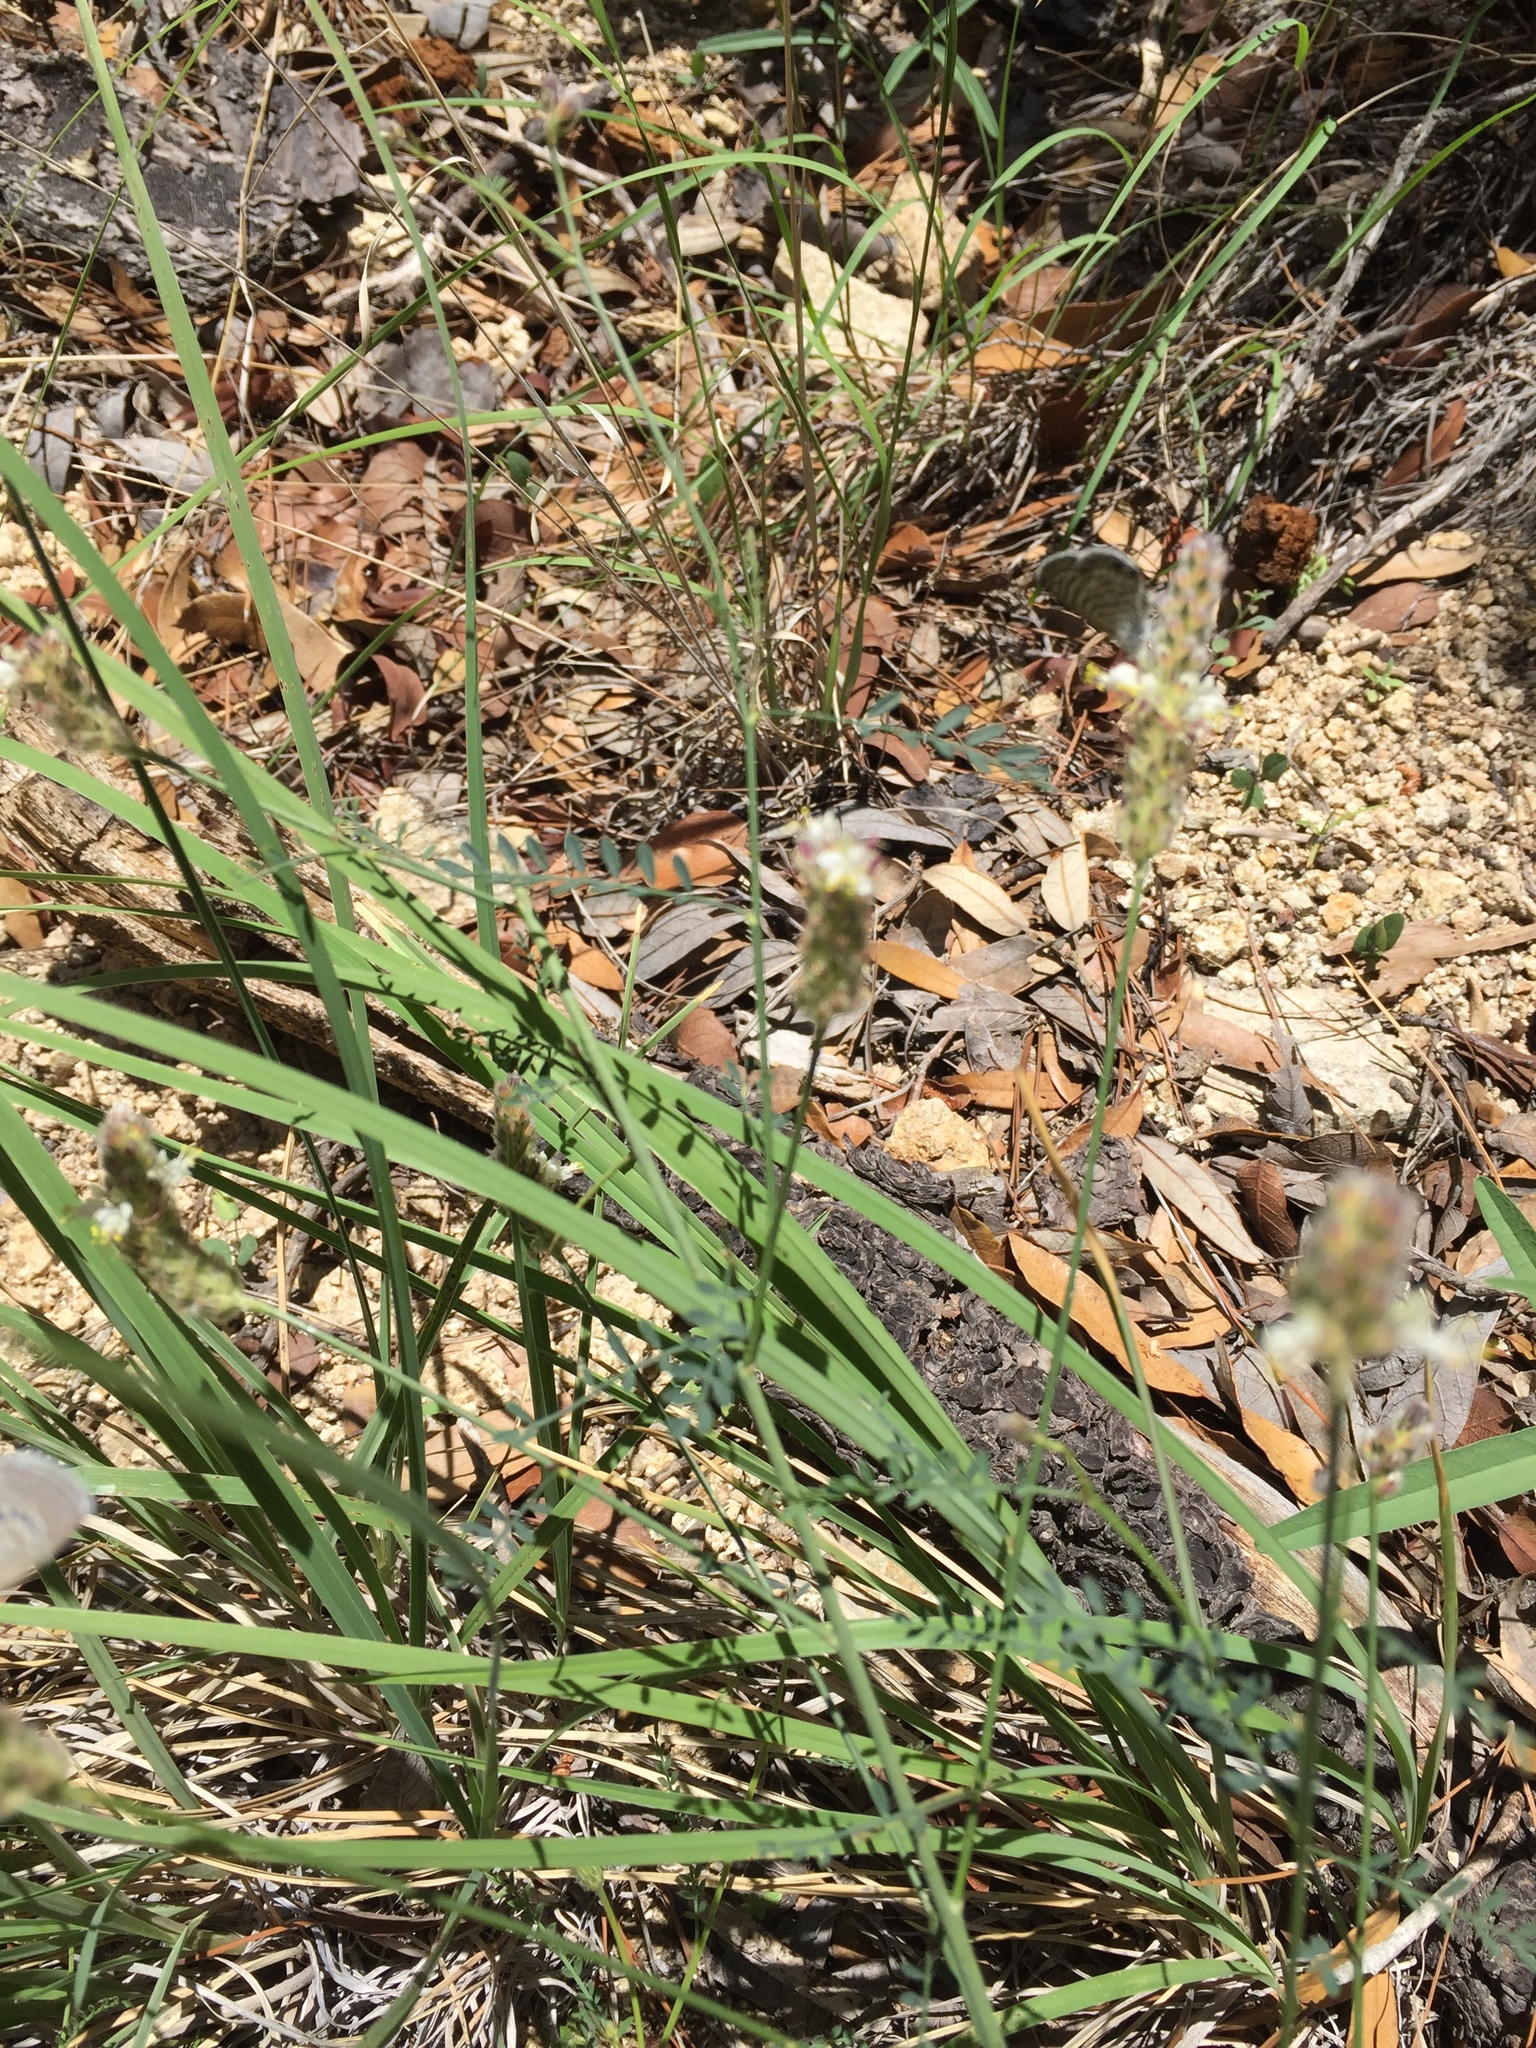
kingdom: Plantae
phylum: Tracheophyta
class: Magnoliopsida
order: Fabales
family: Fabaceae
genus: Dalea
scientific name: Dalea grayi
